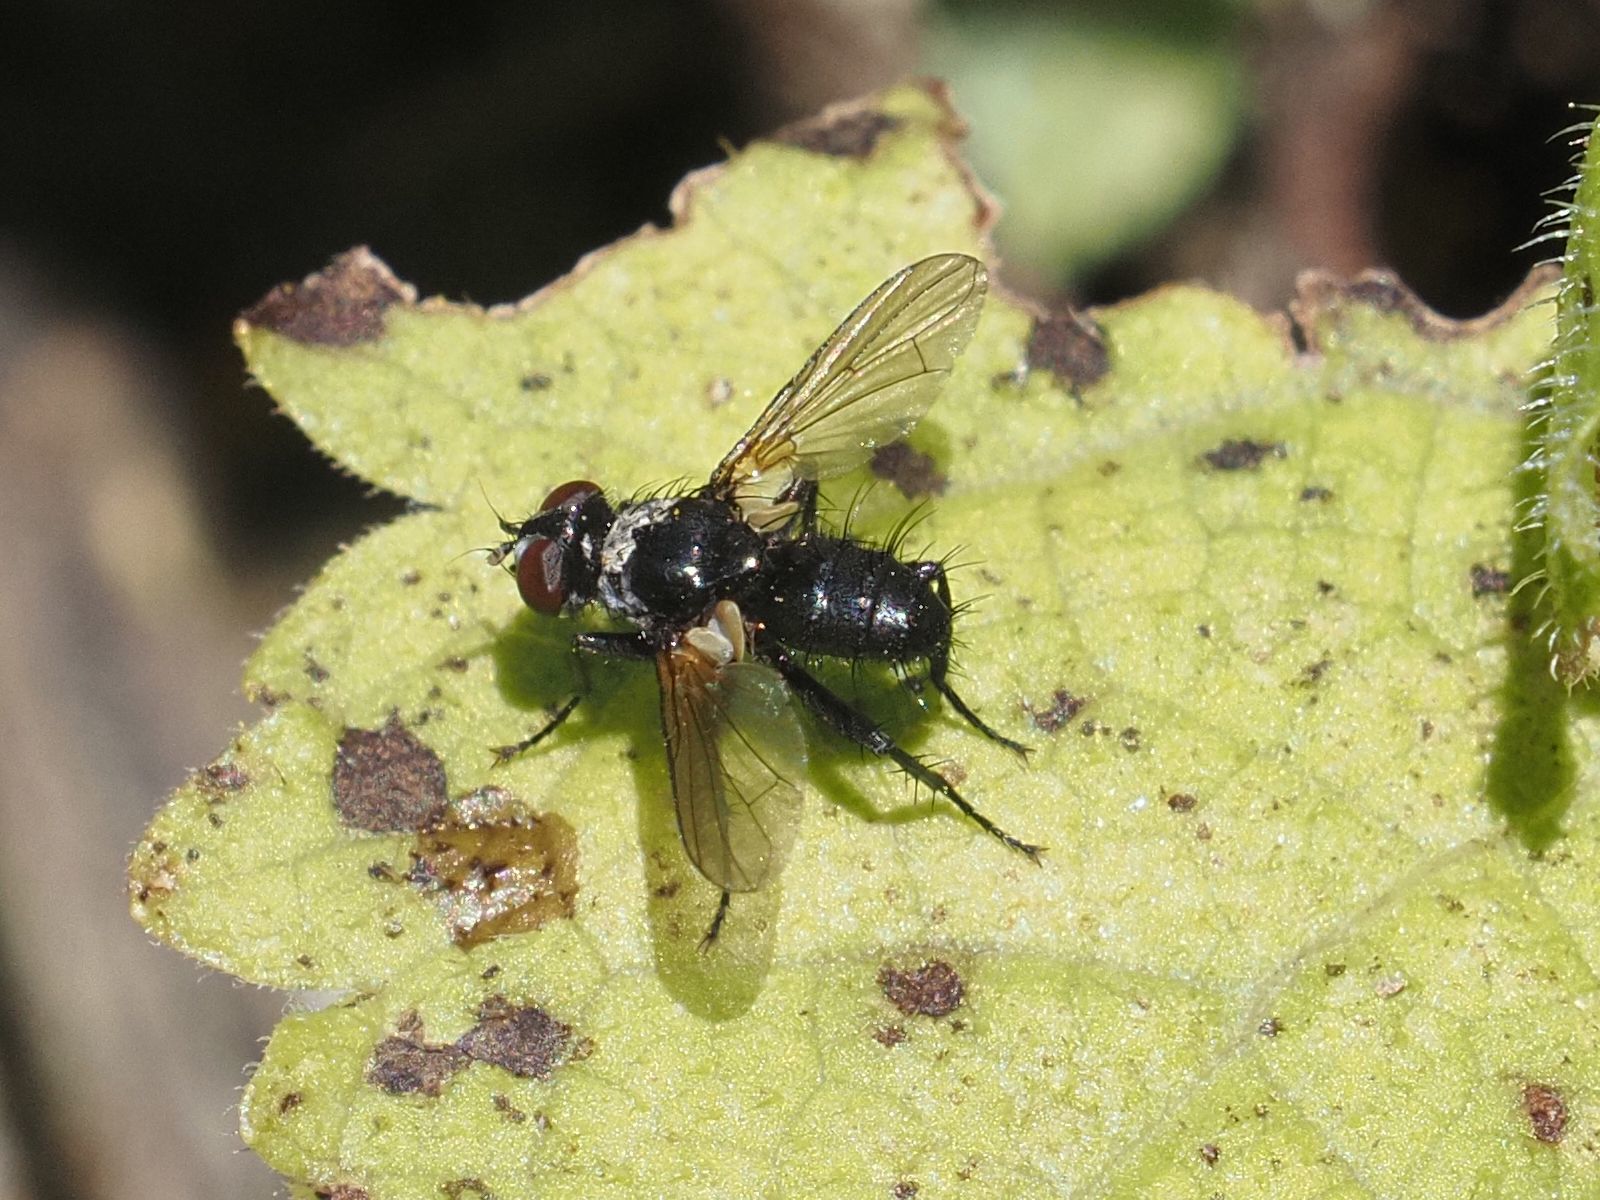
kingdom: Animalia
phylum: Arthropoda
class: Insecta
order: Diptera
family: Tachinidae
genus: Phania
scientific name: Phania funesta
